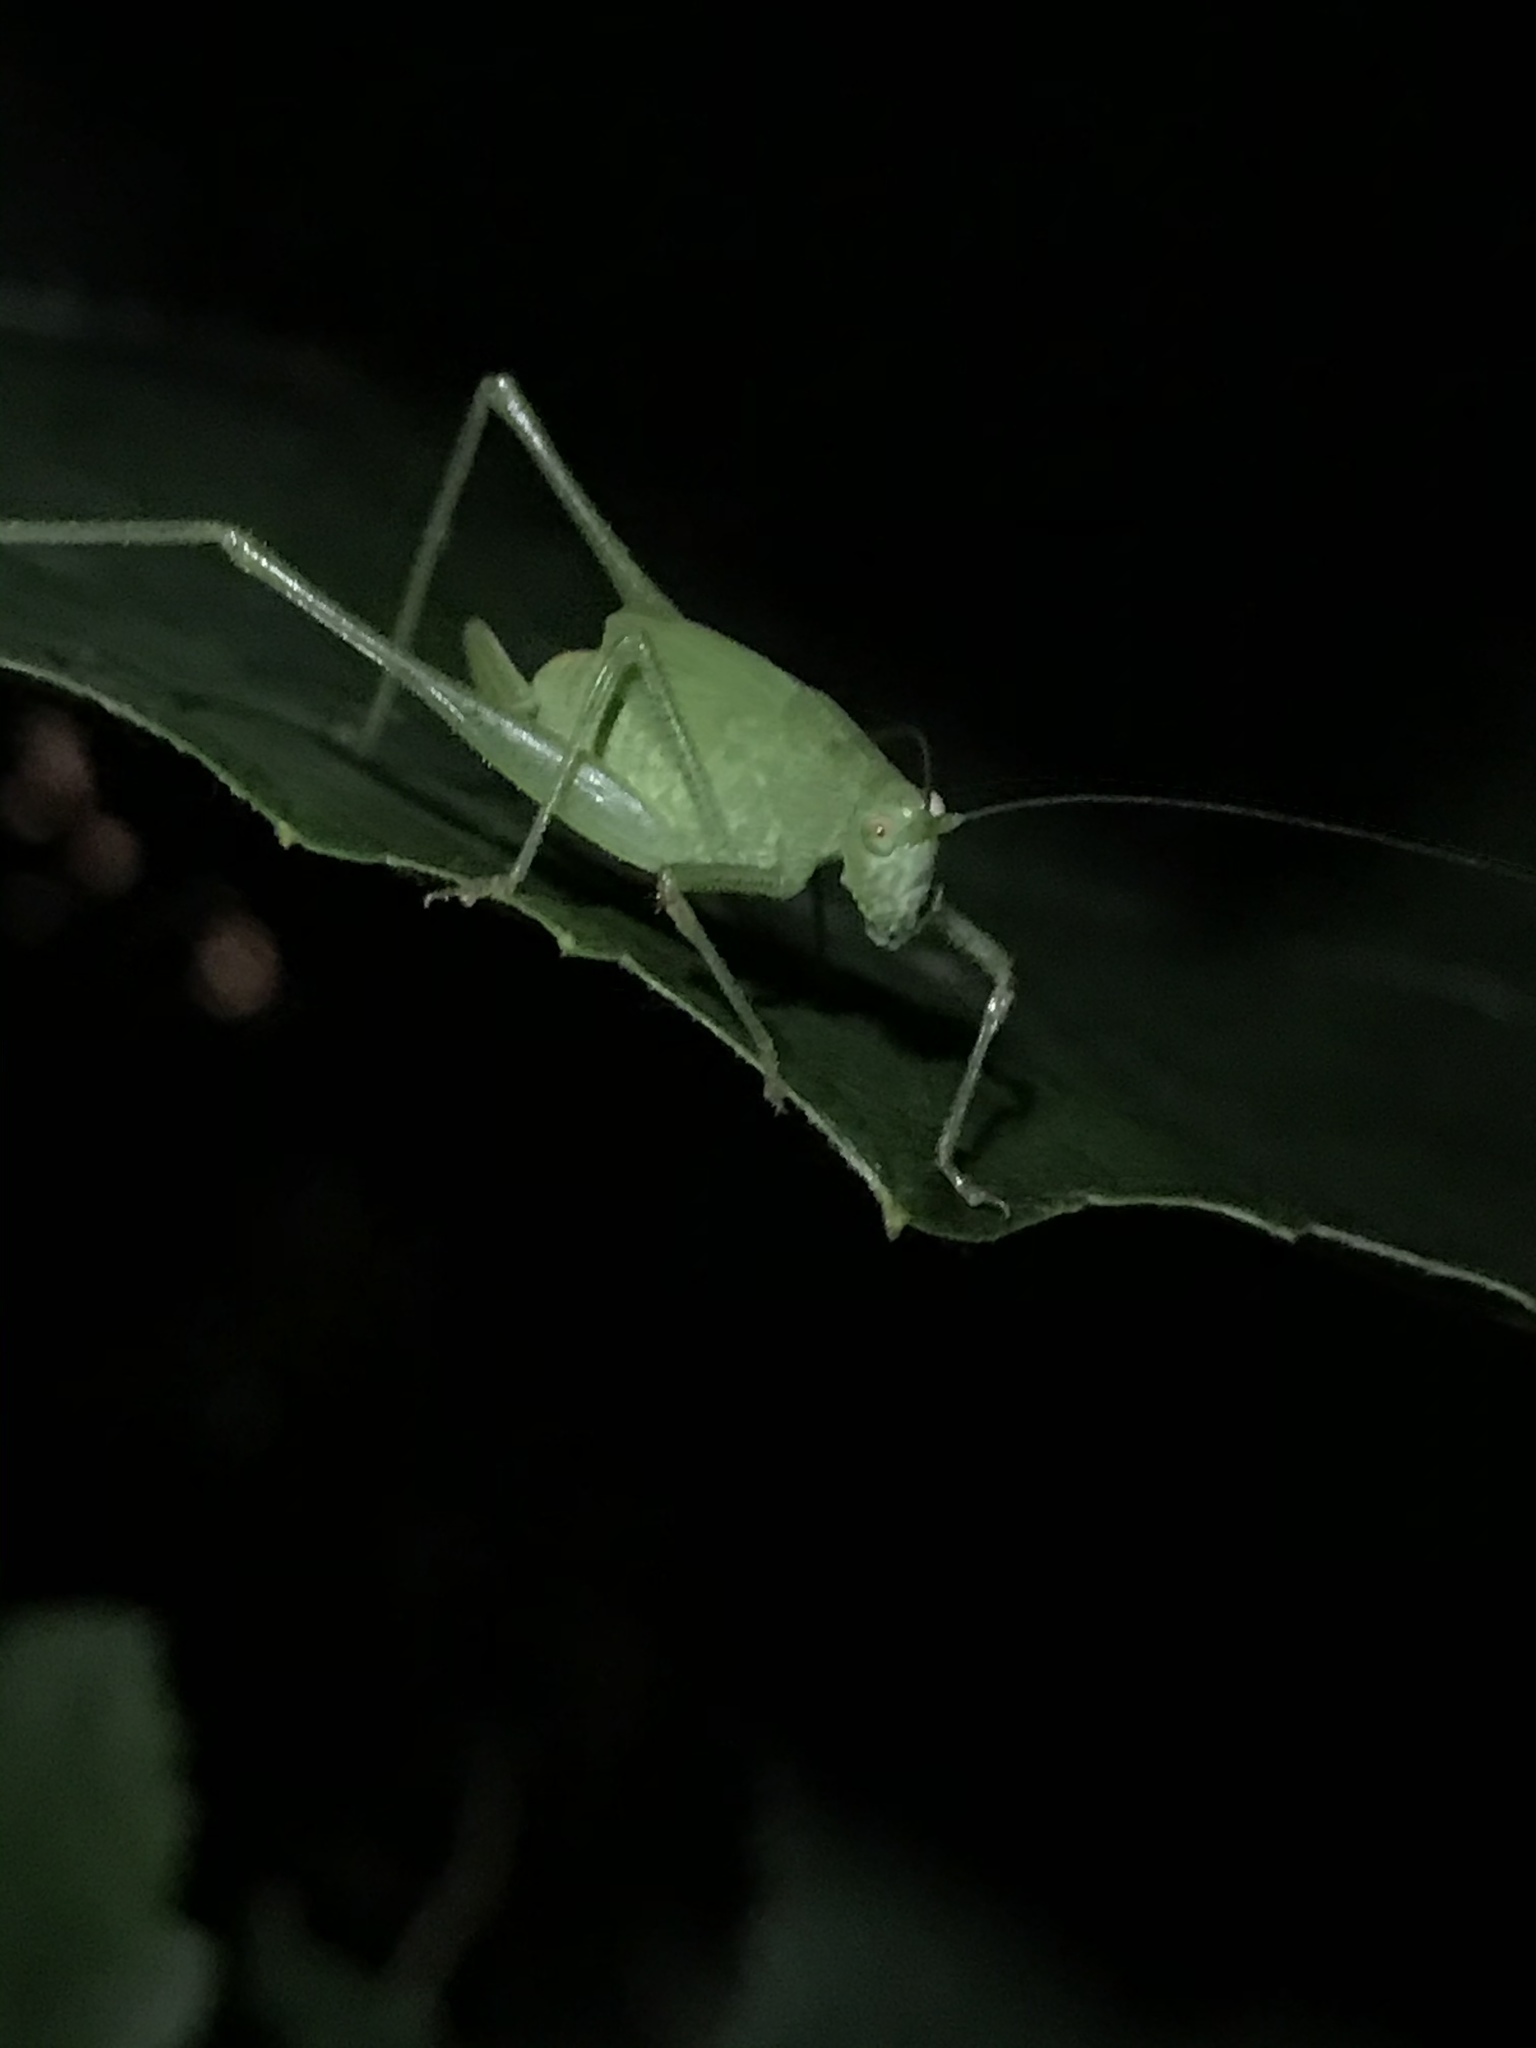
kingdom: Animalia
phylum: Arthropoda
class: Insecta
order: Orthoptera
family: Tettigoniidae
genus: Phaneroptera
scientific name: Phaneroptera nana
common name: Southern sickle bush-cricket
